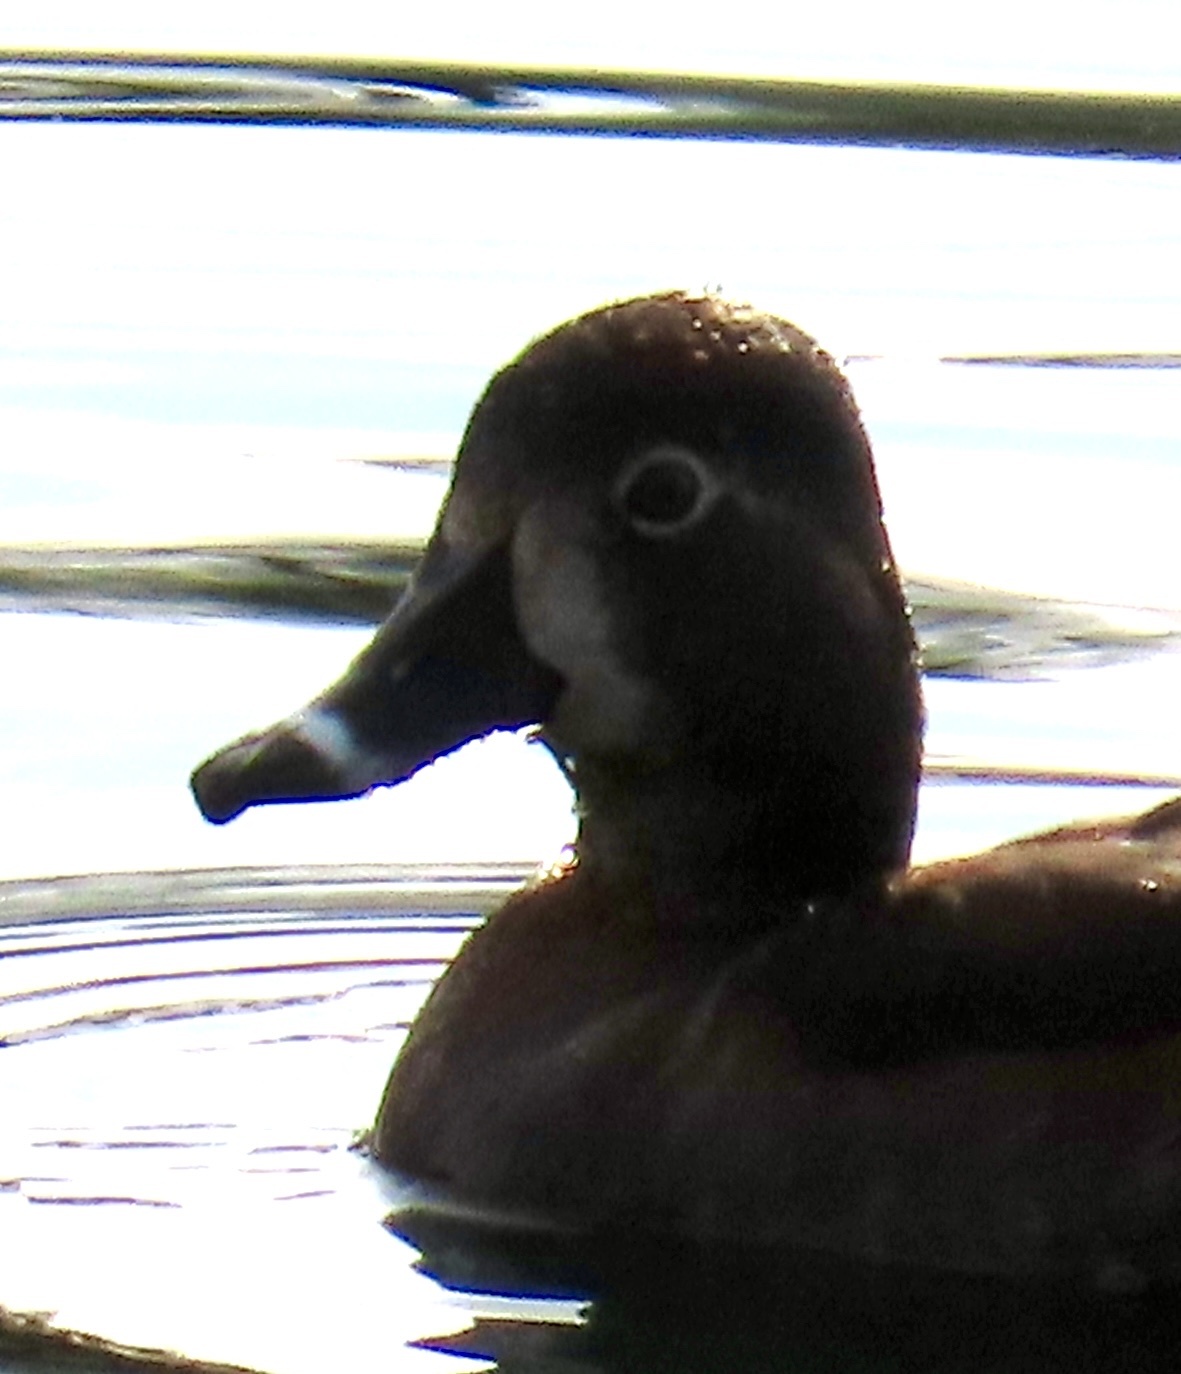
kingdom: Animalia
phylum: Chordata
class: Aves
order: Anseriformes
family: Anatidae
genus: Aythya
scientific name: Aythya collaris
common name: Ring-necked duck
